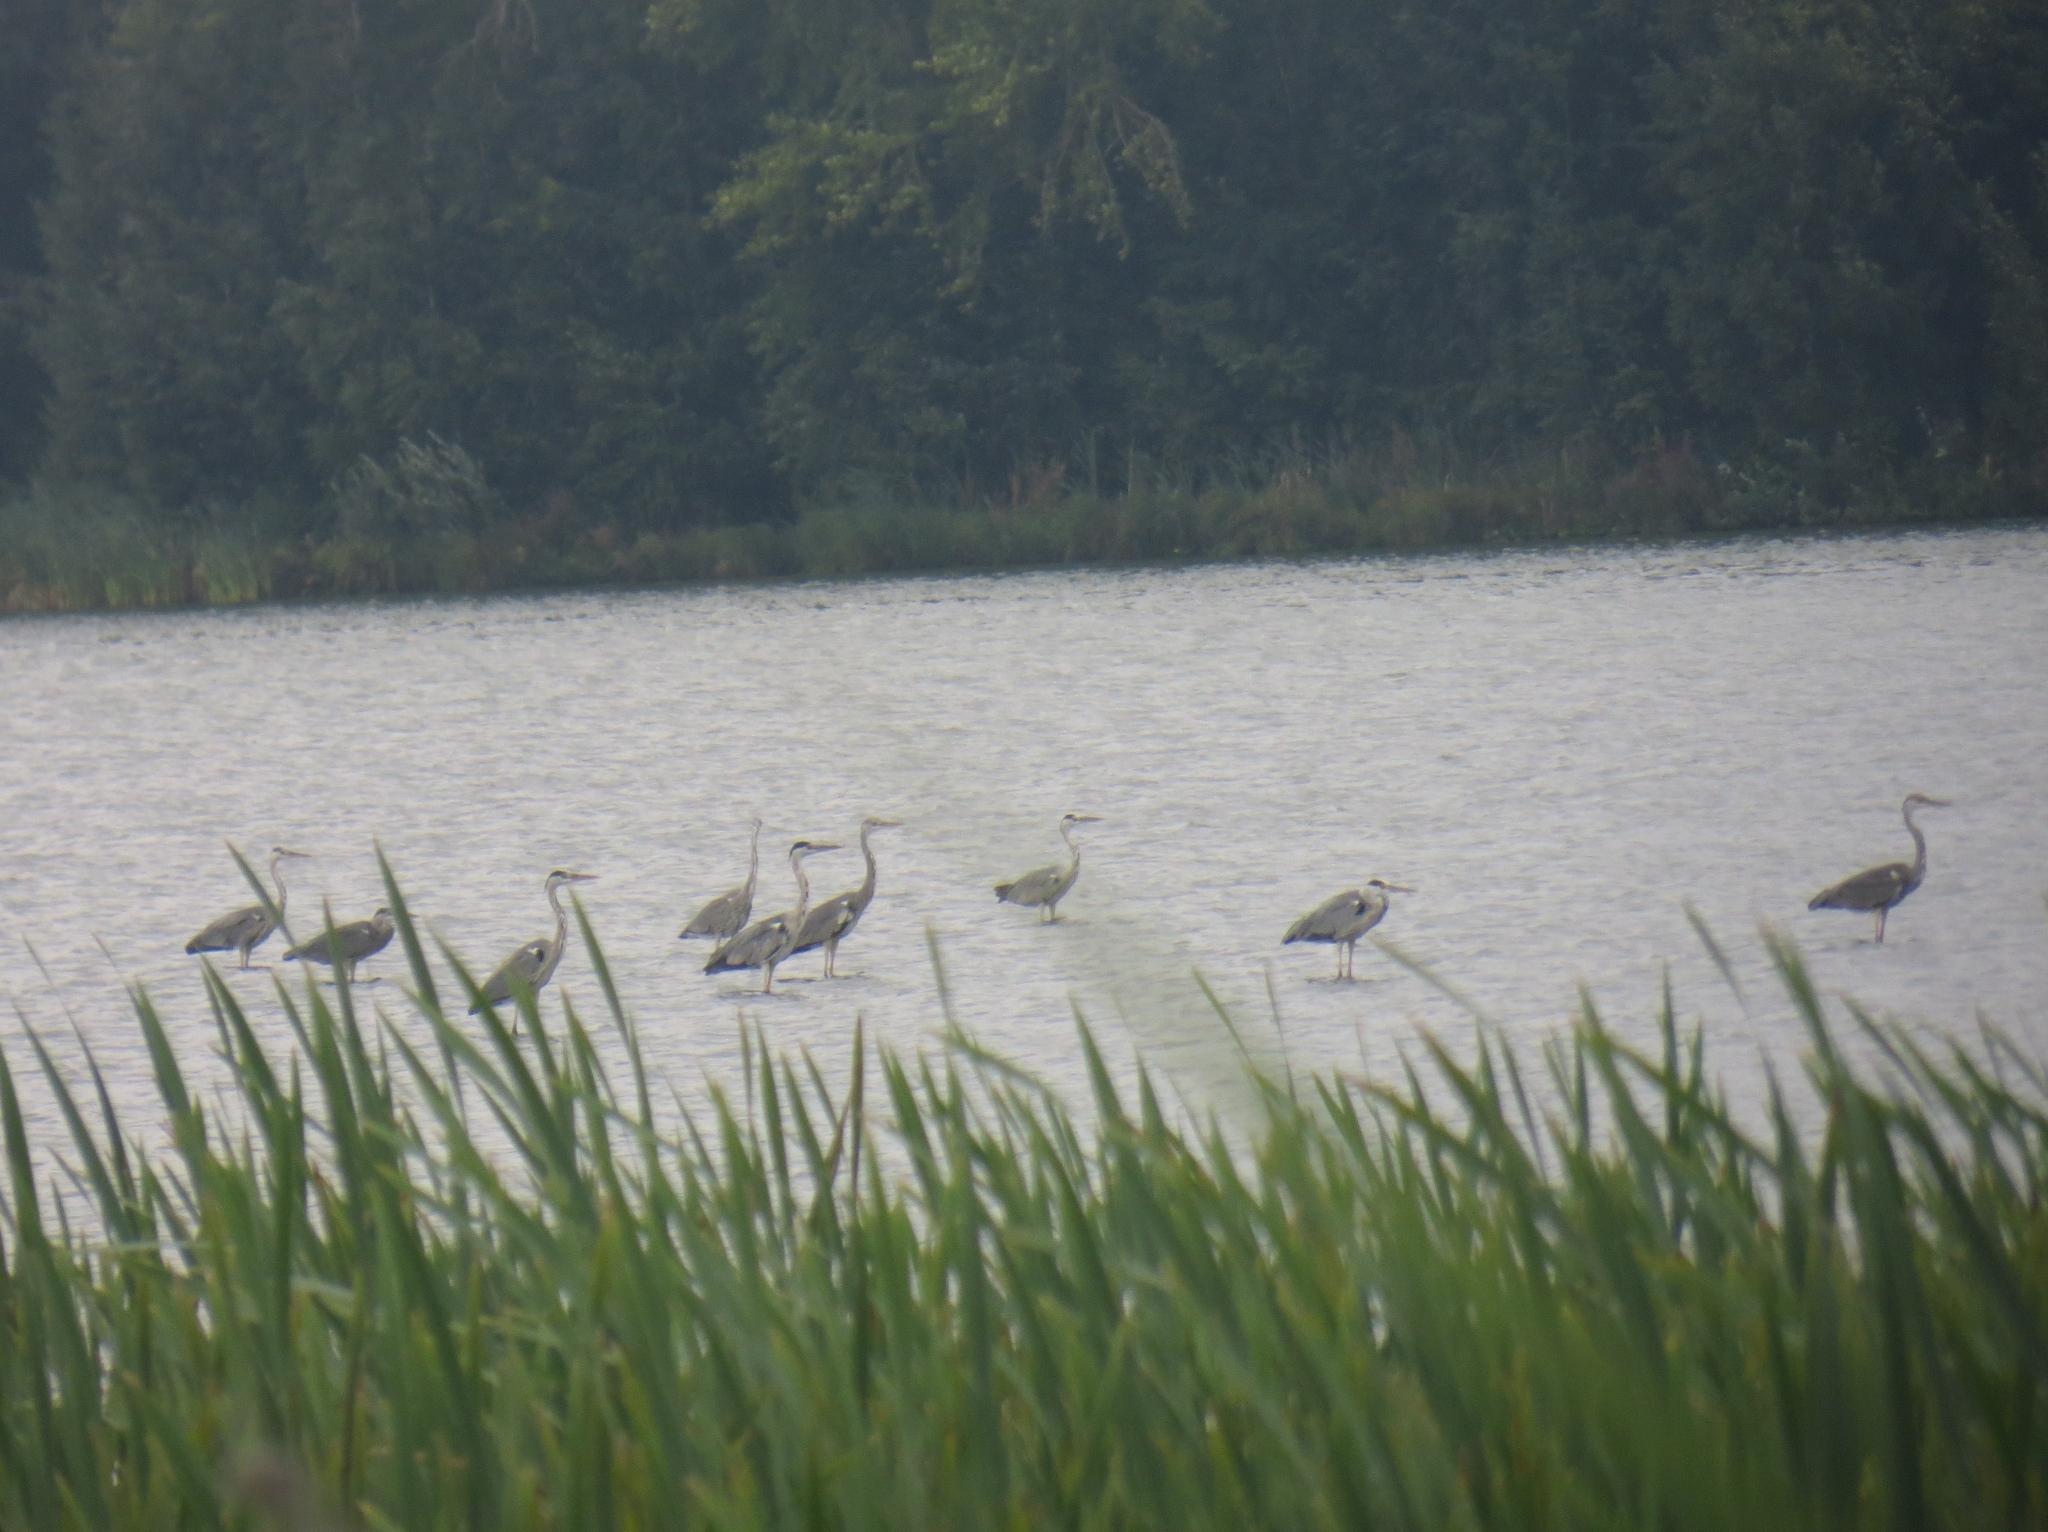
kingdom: Animalia
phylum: Chordata
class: Aves
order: Pelecaniformes
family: Ardeidae
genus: Ardea
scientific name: Ardea cinerea
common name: Grey heron
